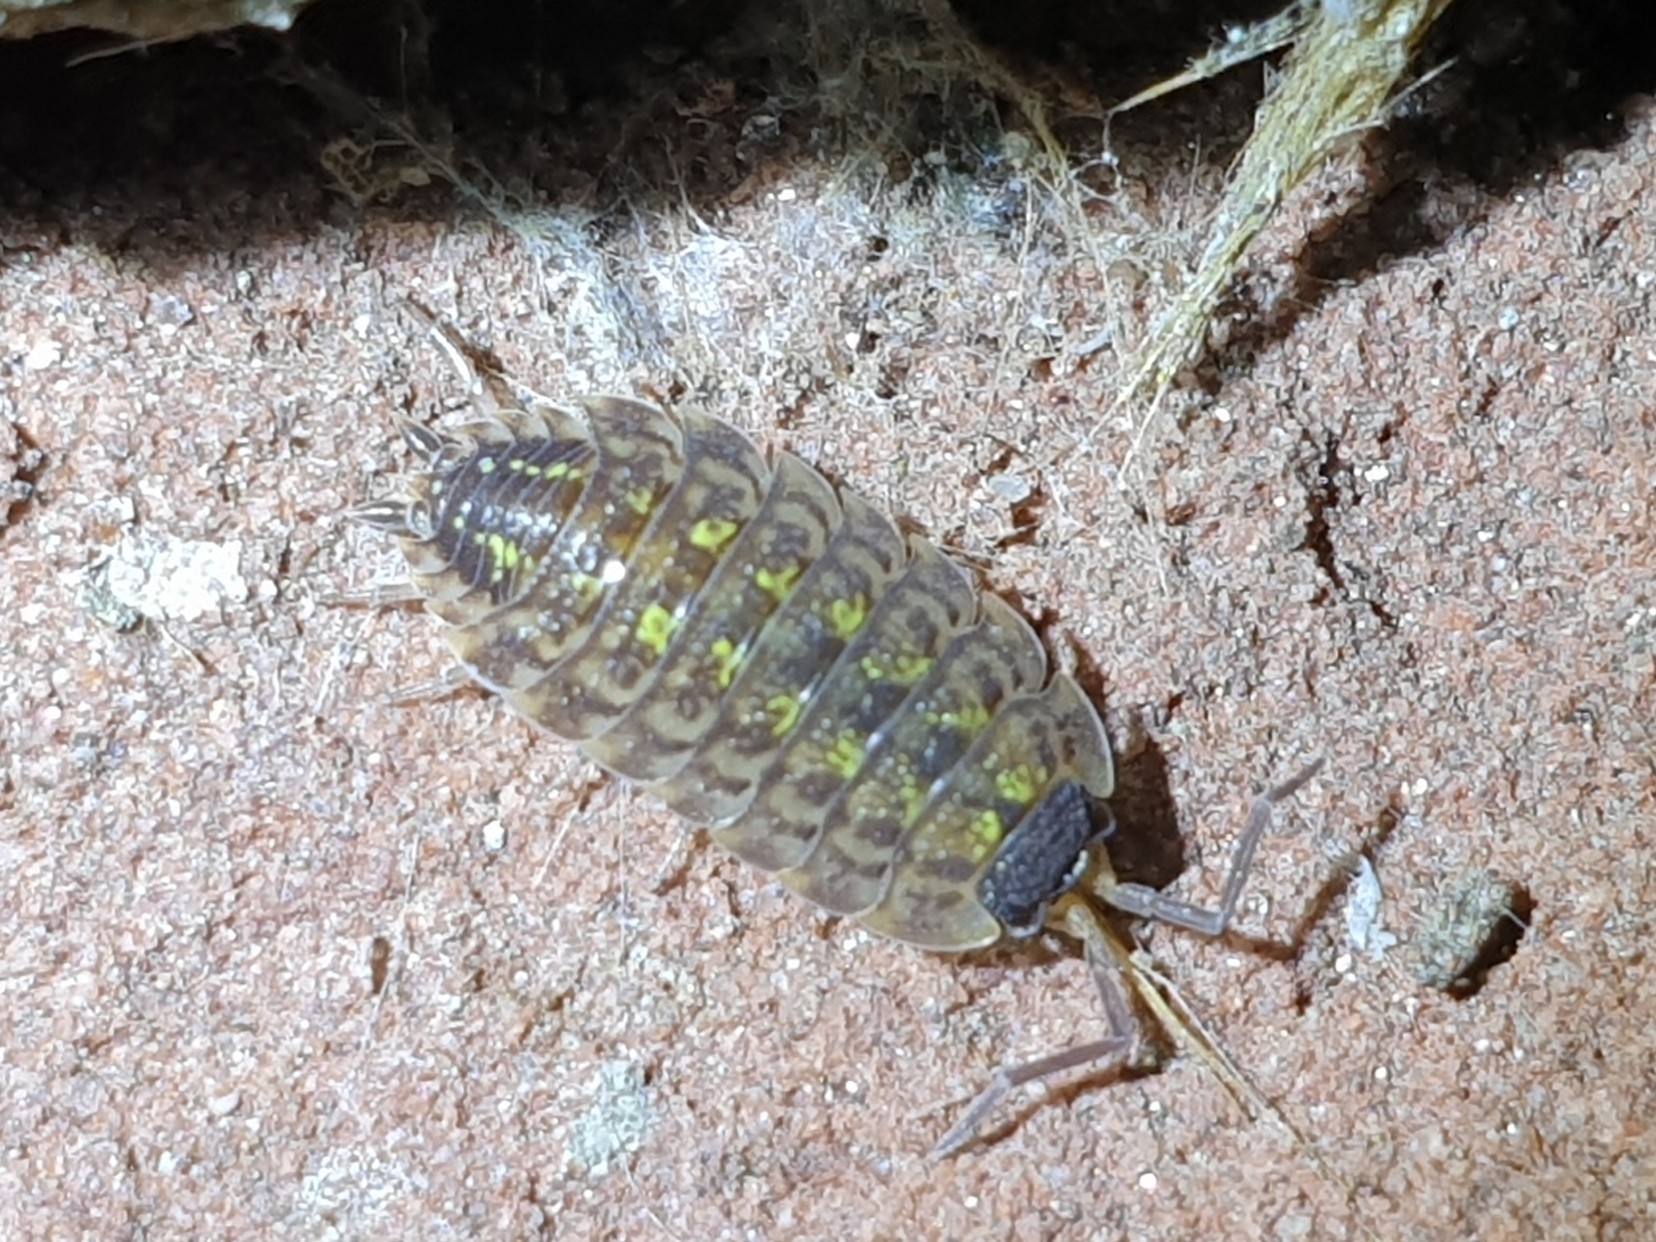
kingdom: Animalia
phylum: Arthropoda
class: Malacostraca
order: Isopoda
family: Porcellionidae
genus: Porcellio
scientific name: Porcellio spinicornis
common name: Painted woodlouse
